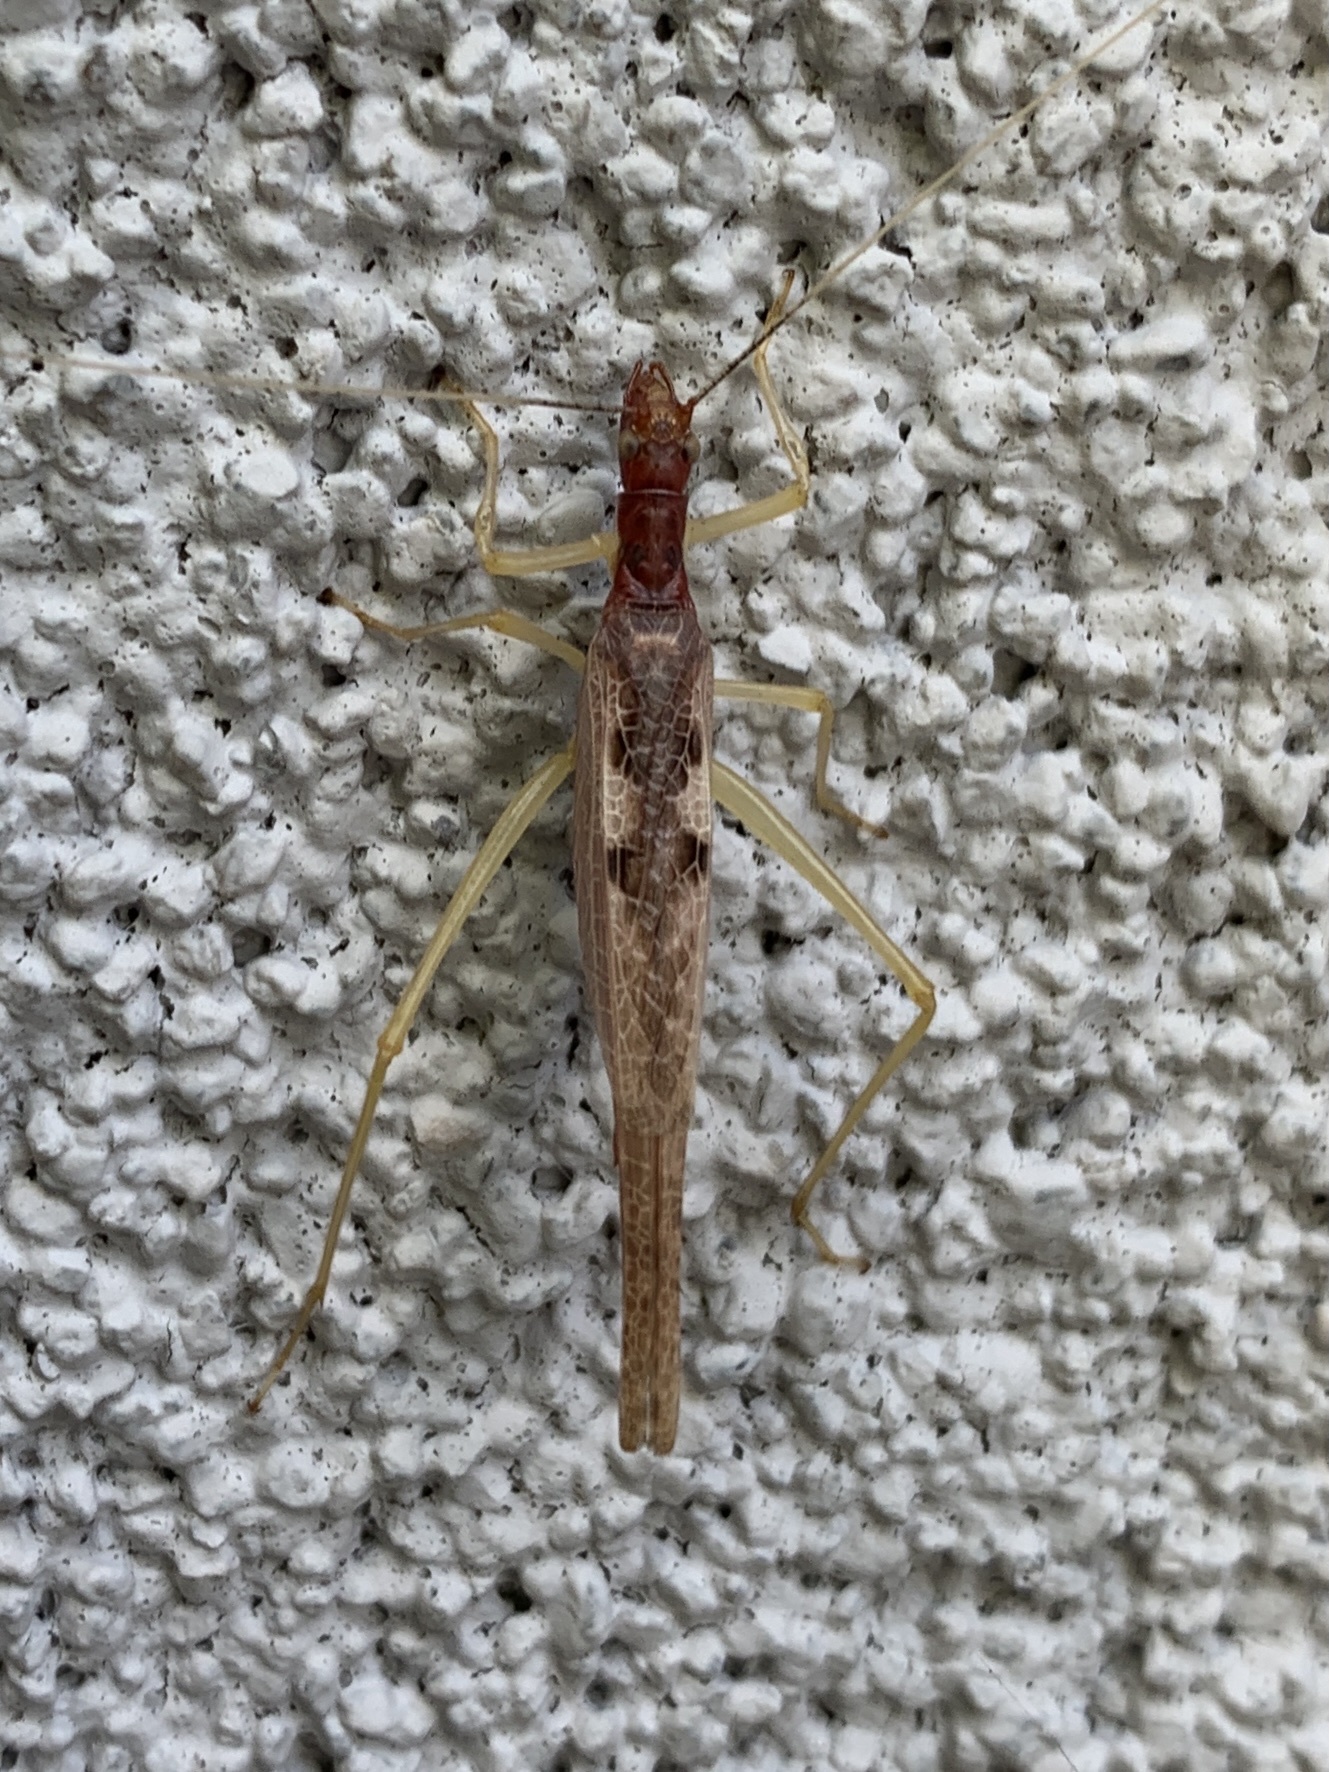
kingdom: Animalia
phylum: Arthropoda
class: Insecta
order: Orthoptera
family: Gryllidae
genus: Neoxabea
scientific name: Neoxabea bipunctata
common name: Two-spotted tree cricket
